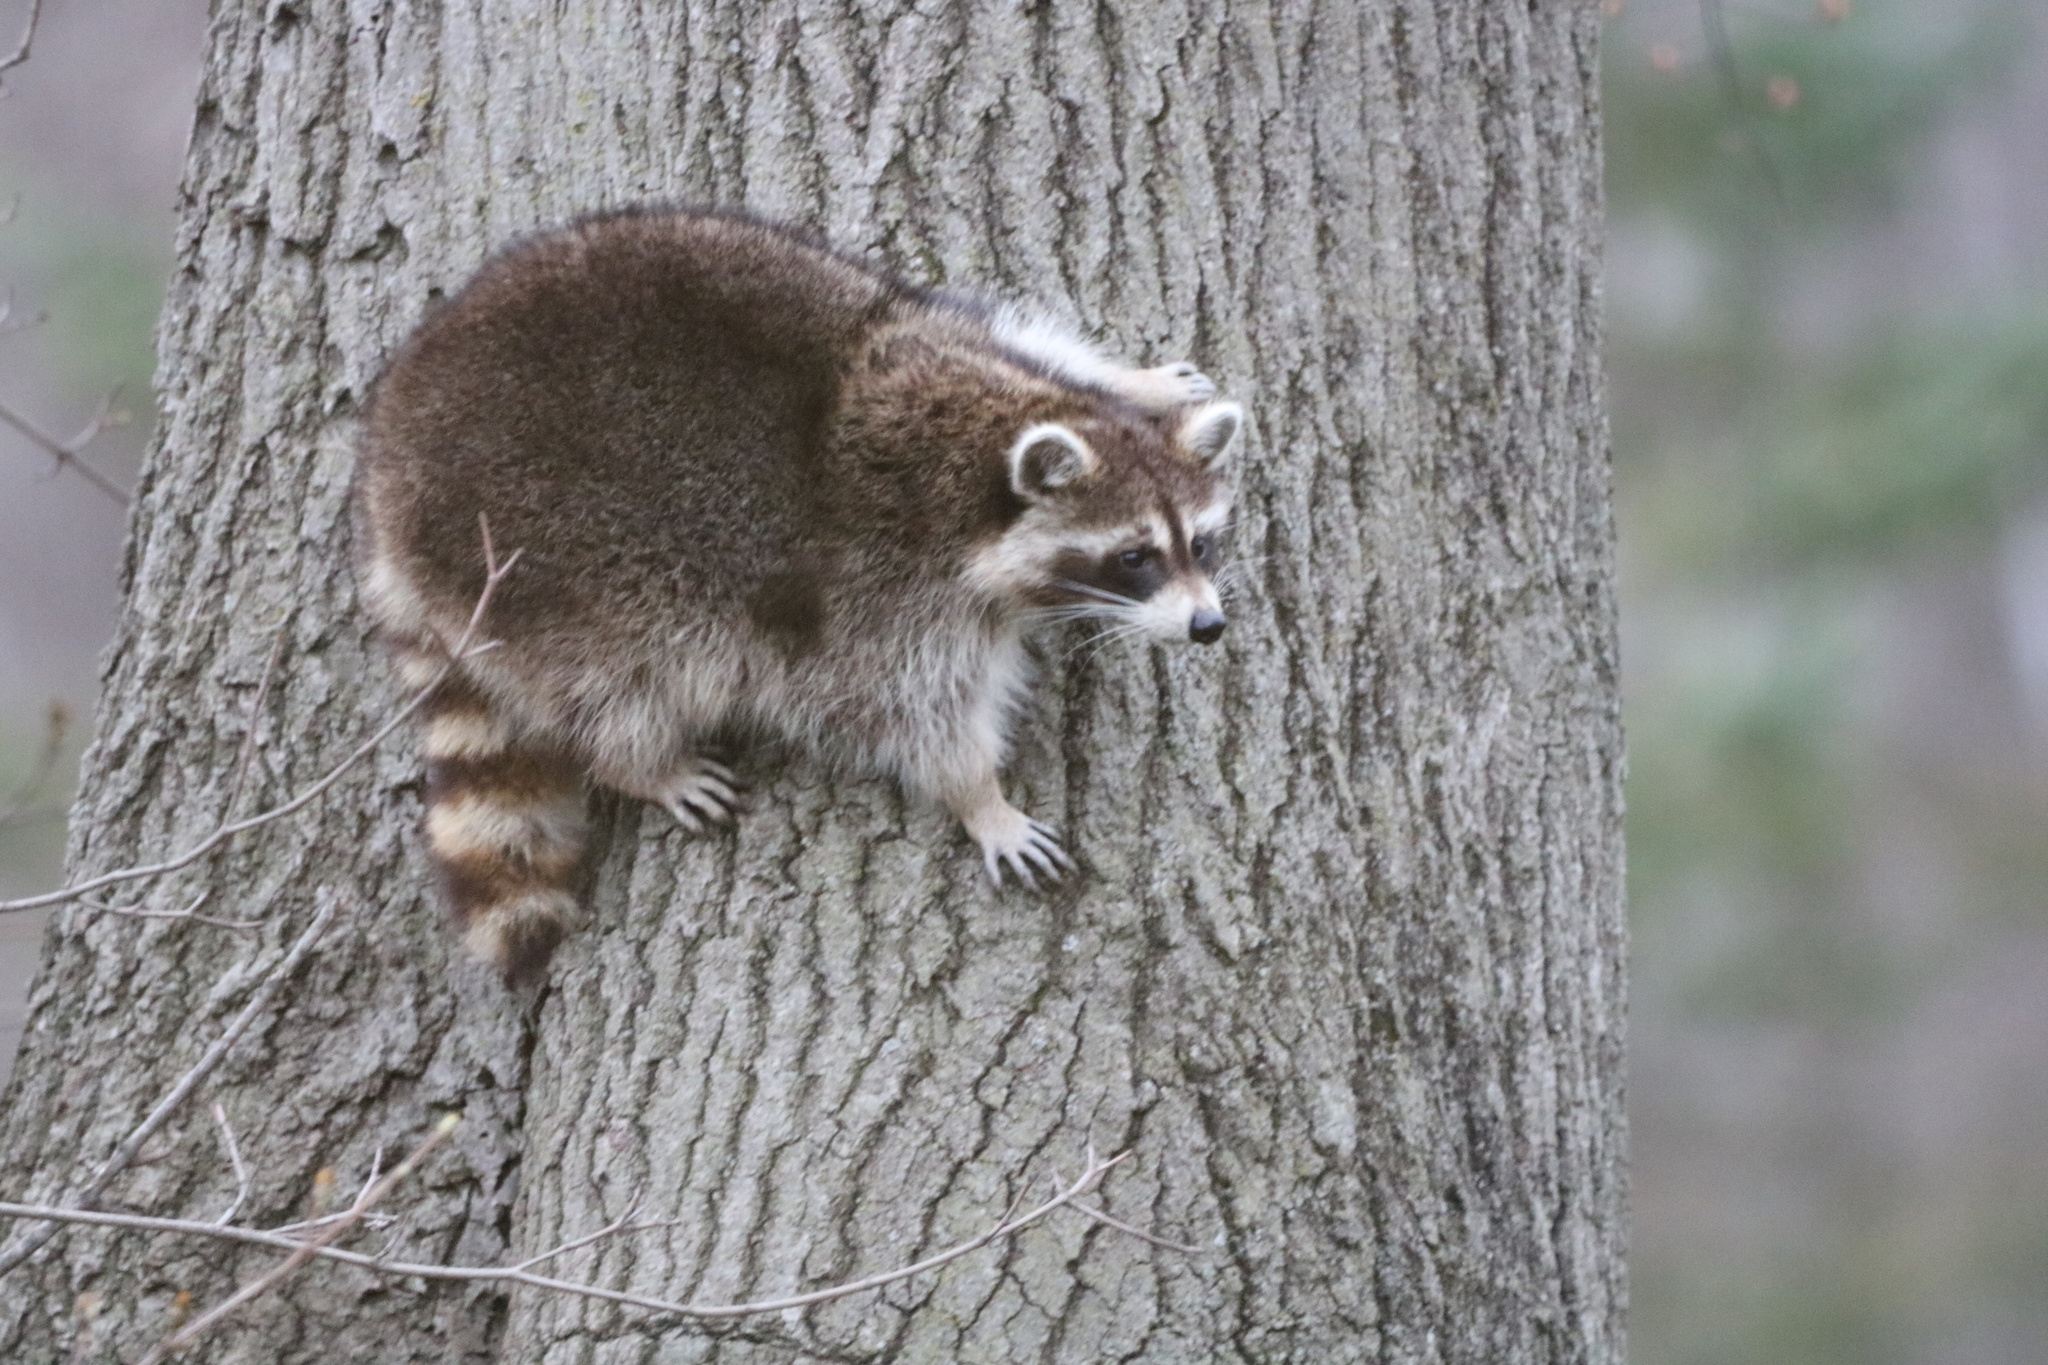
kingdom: Animalia
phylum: Chordata
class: Mammalia
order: Carnivora
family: Procyonidae
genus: Procyon
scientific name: Procyon lotor
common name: Raccoon
